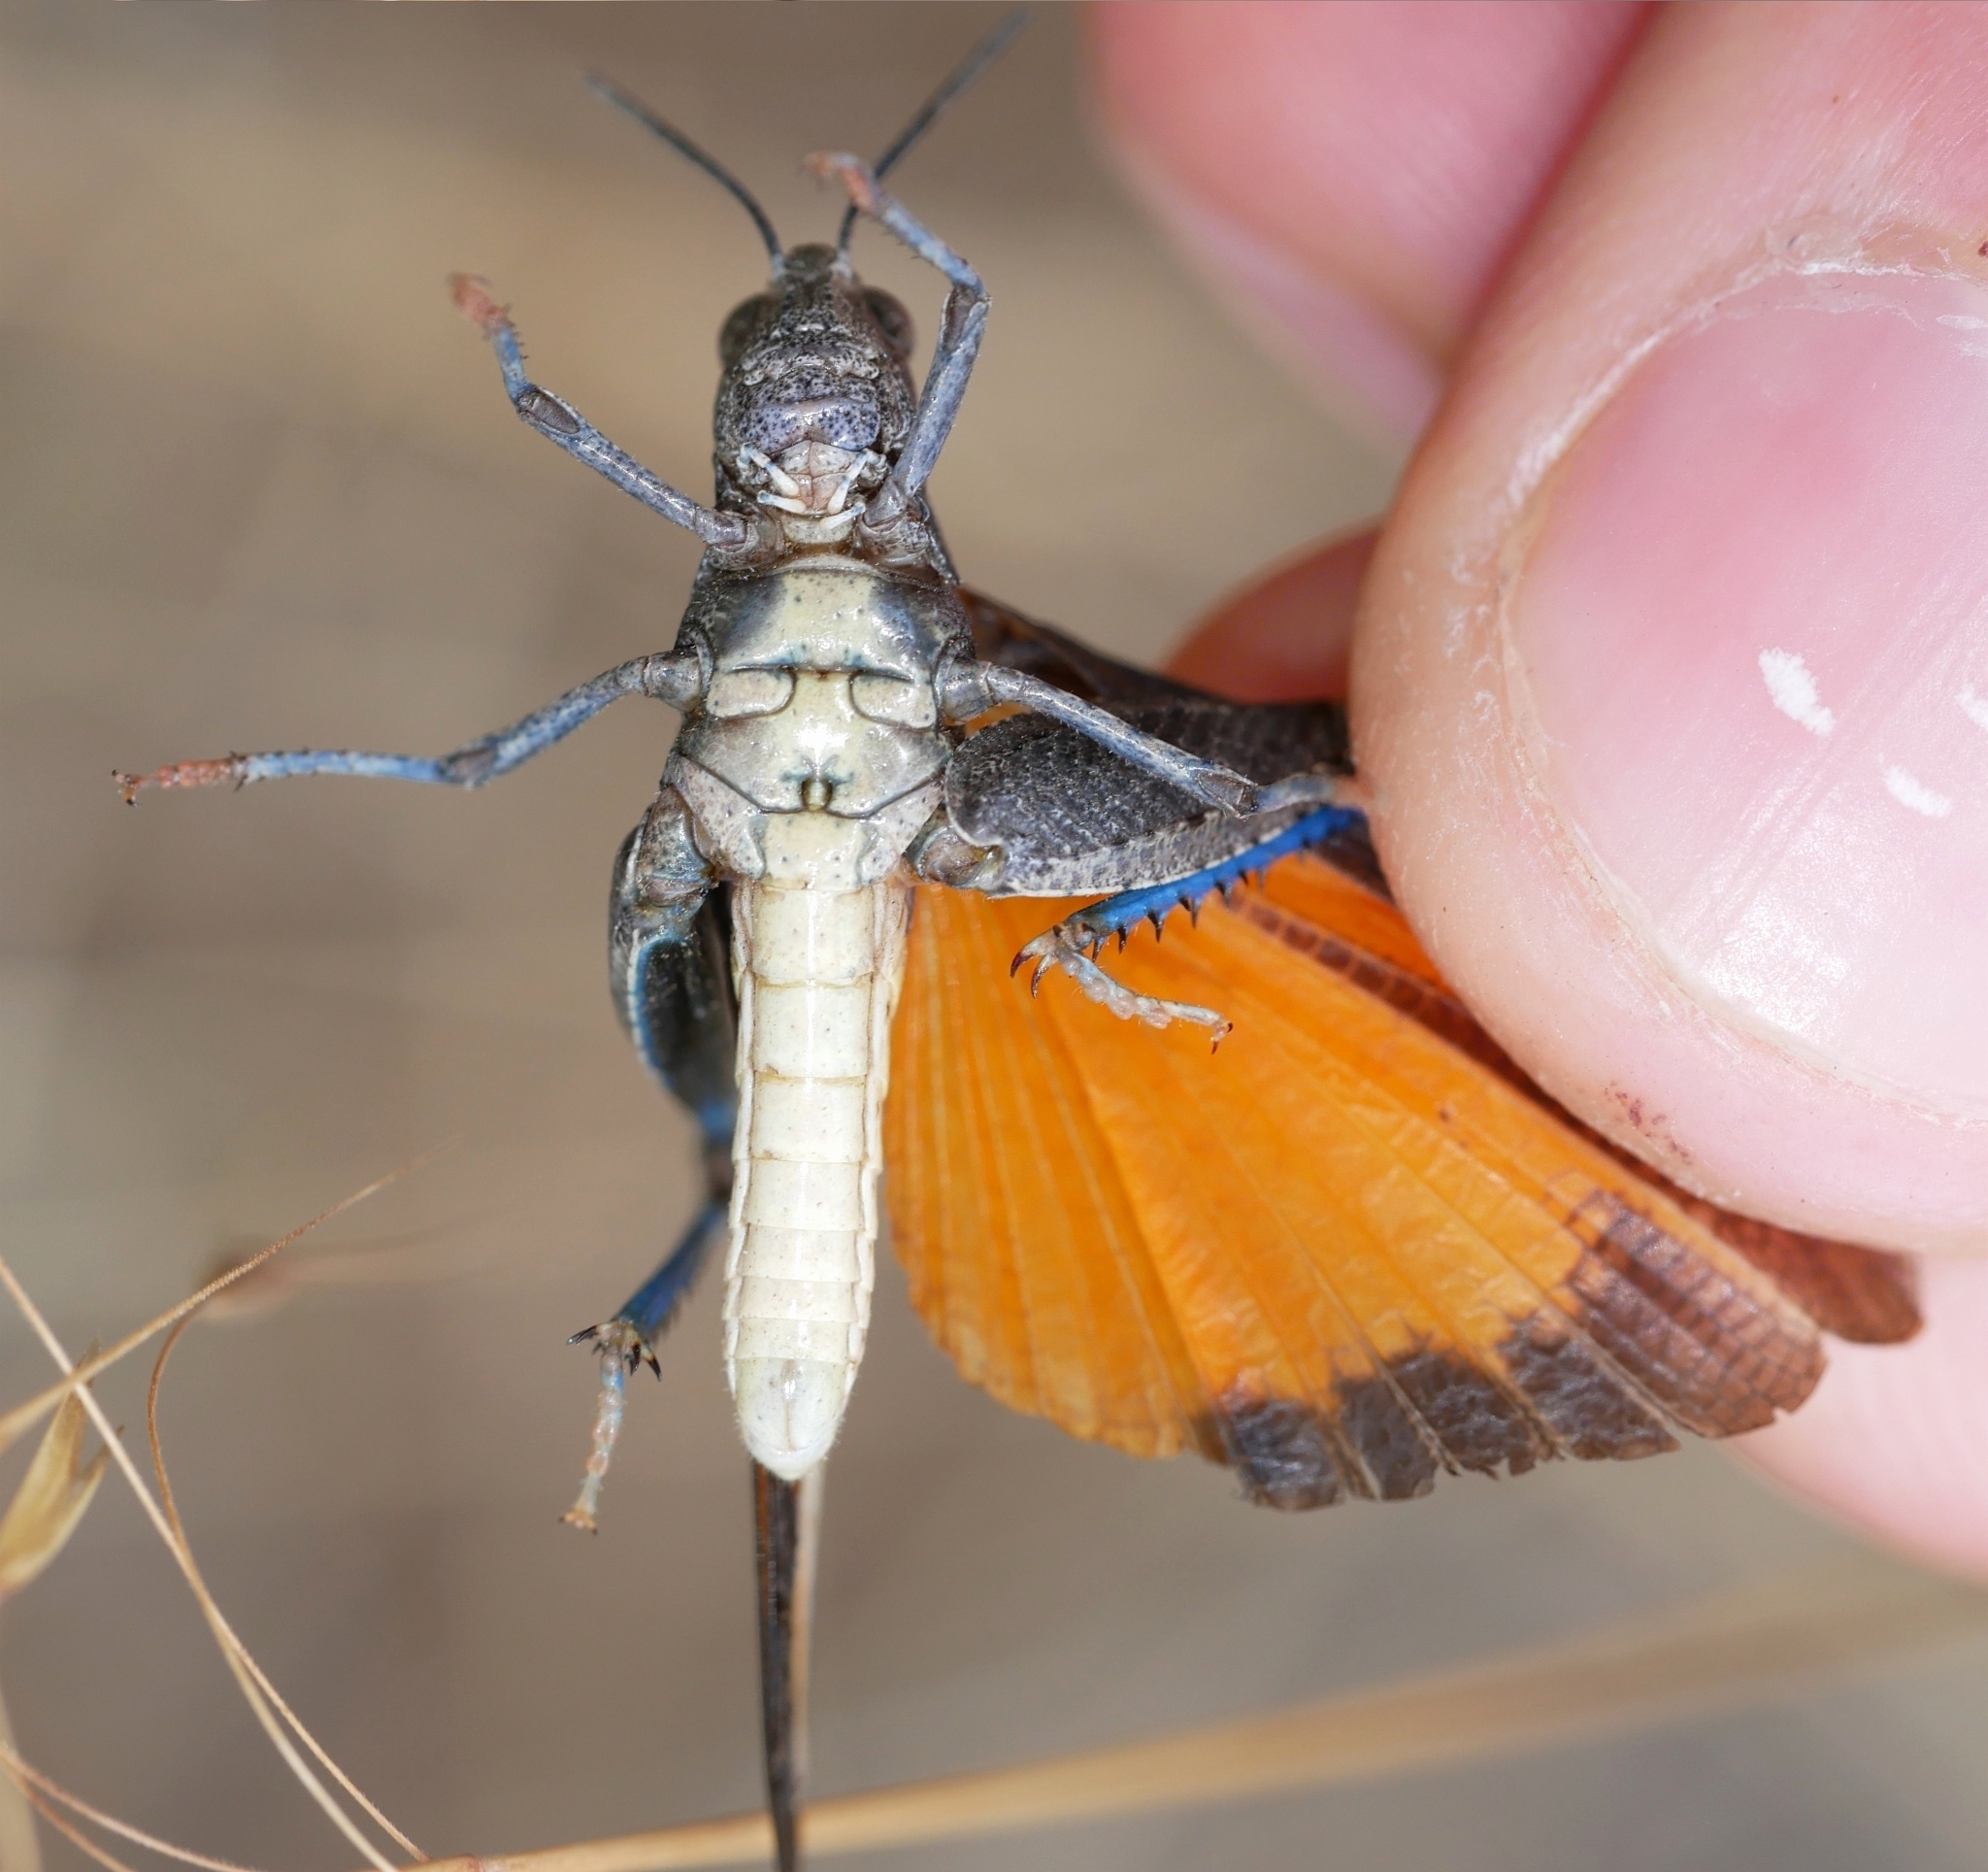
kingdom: Animalia
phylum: Arthropoda
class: Insecta
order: Orthoptera
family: Acrididae
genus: Arphia
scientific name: Arphia ramona
